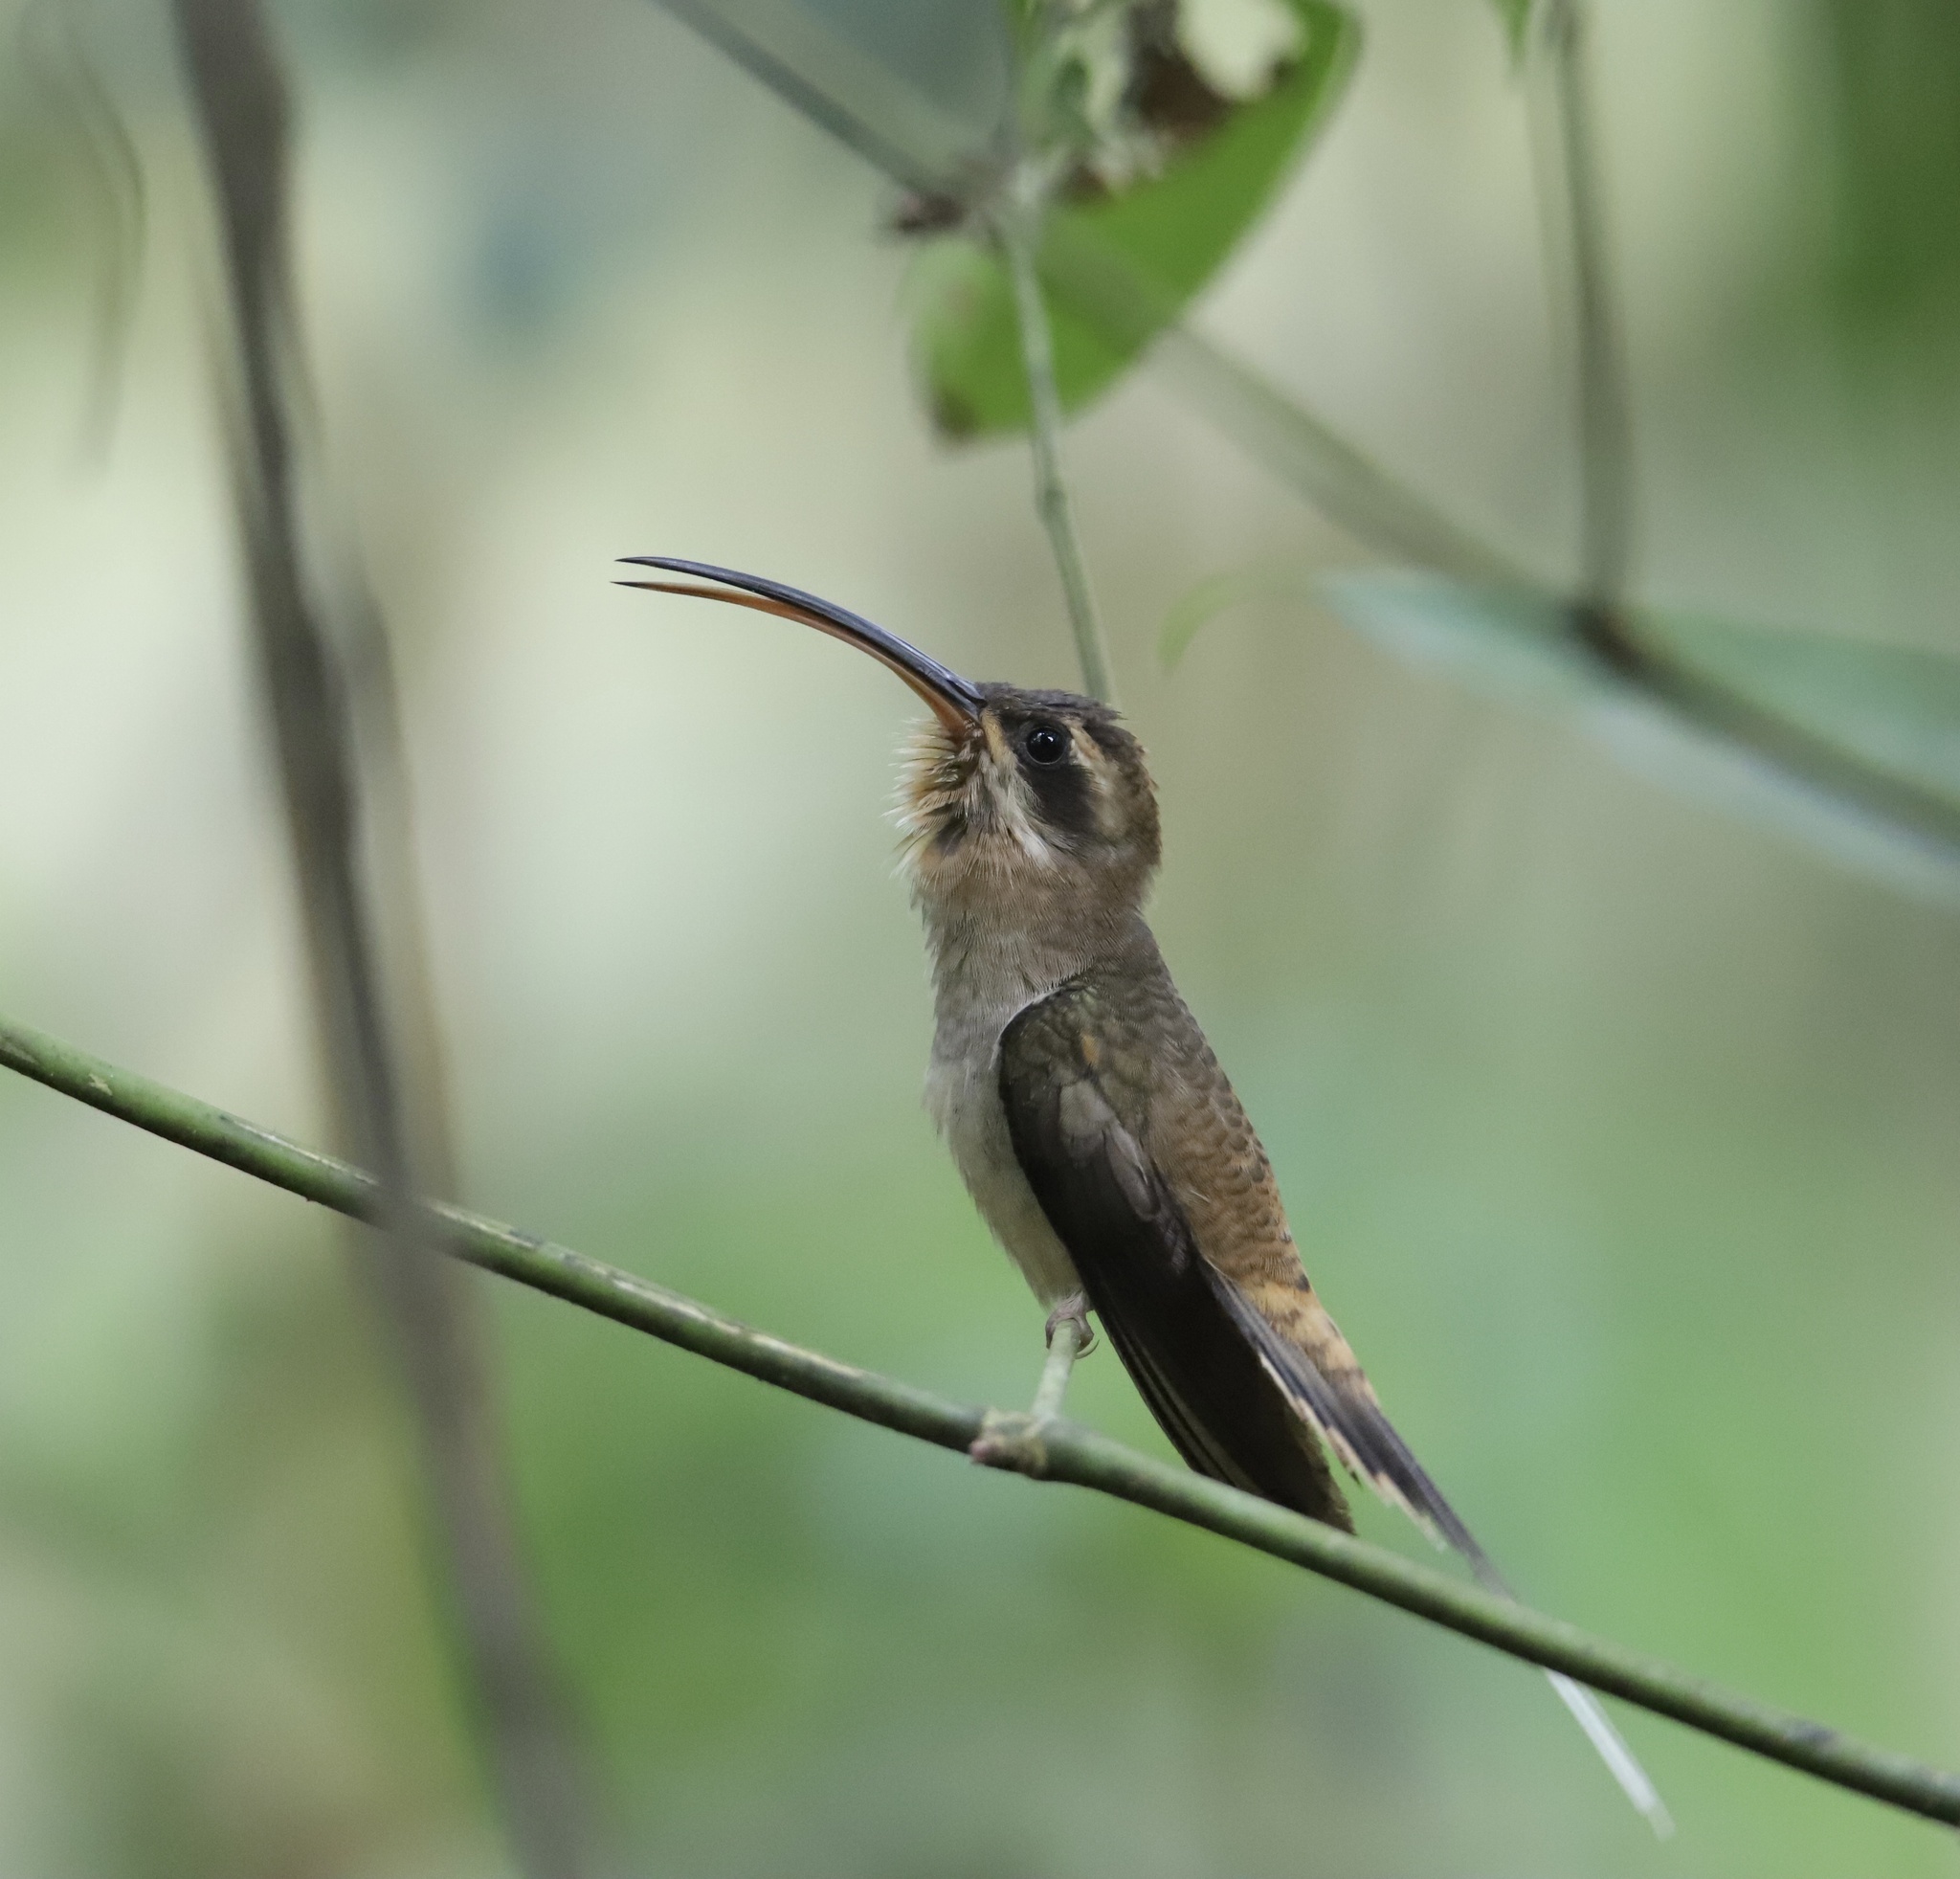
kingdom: Animalia
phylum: Chordata
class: Aves
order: Apodiformes
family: Trochilidae
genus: Phaethornis
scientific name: Phaethornis longirostris
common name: Long-billed hermit
